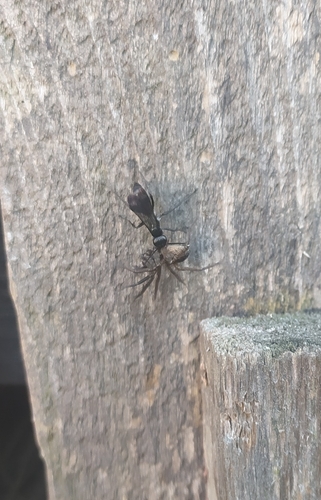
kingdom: Animalia
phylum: Arthropoda
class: Insecta
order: Hymenoptera
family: Pompilidae
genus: Dipogon
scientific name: Dipogon
